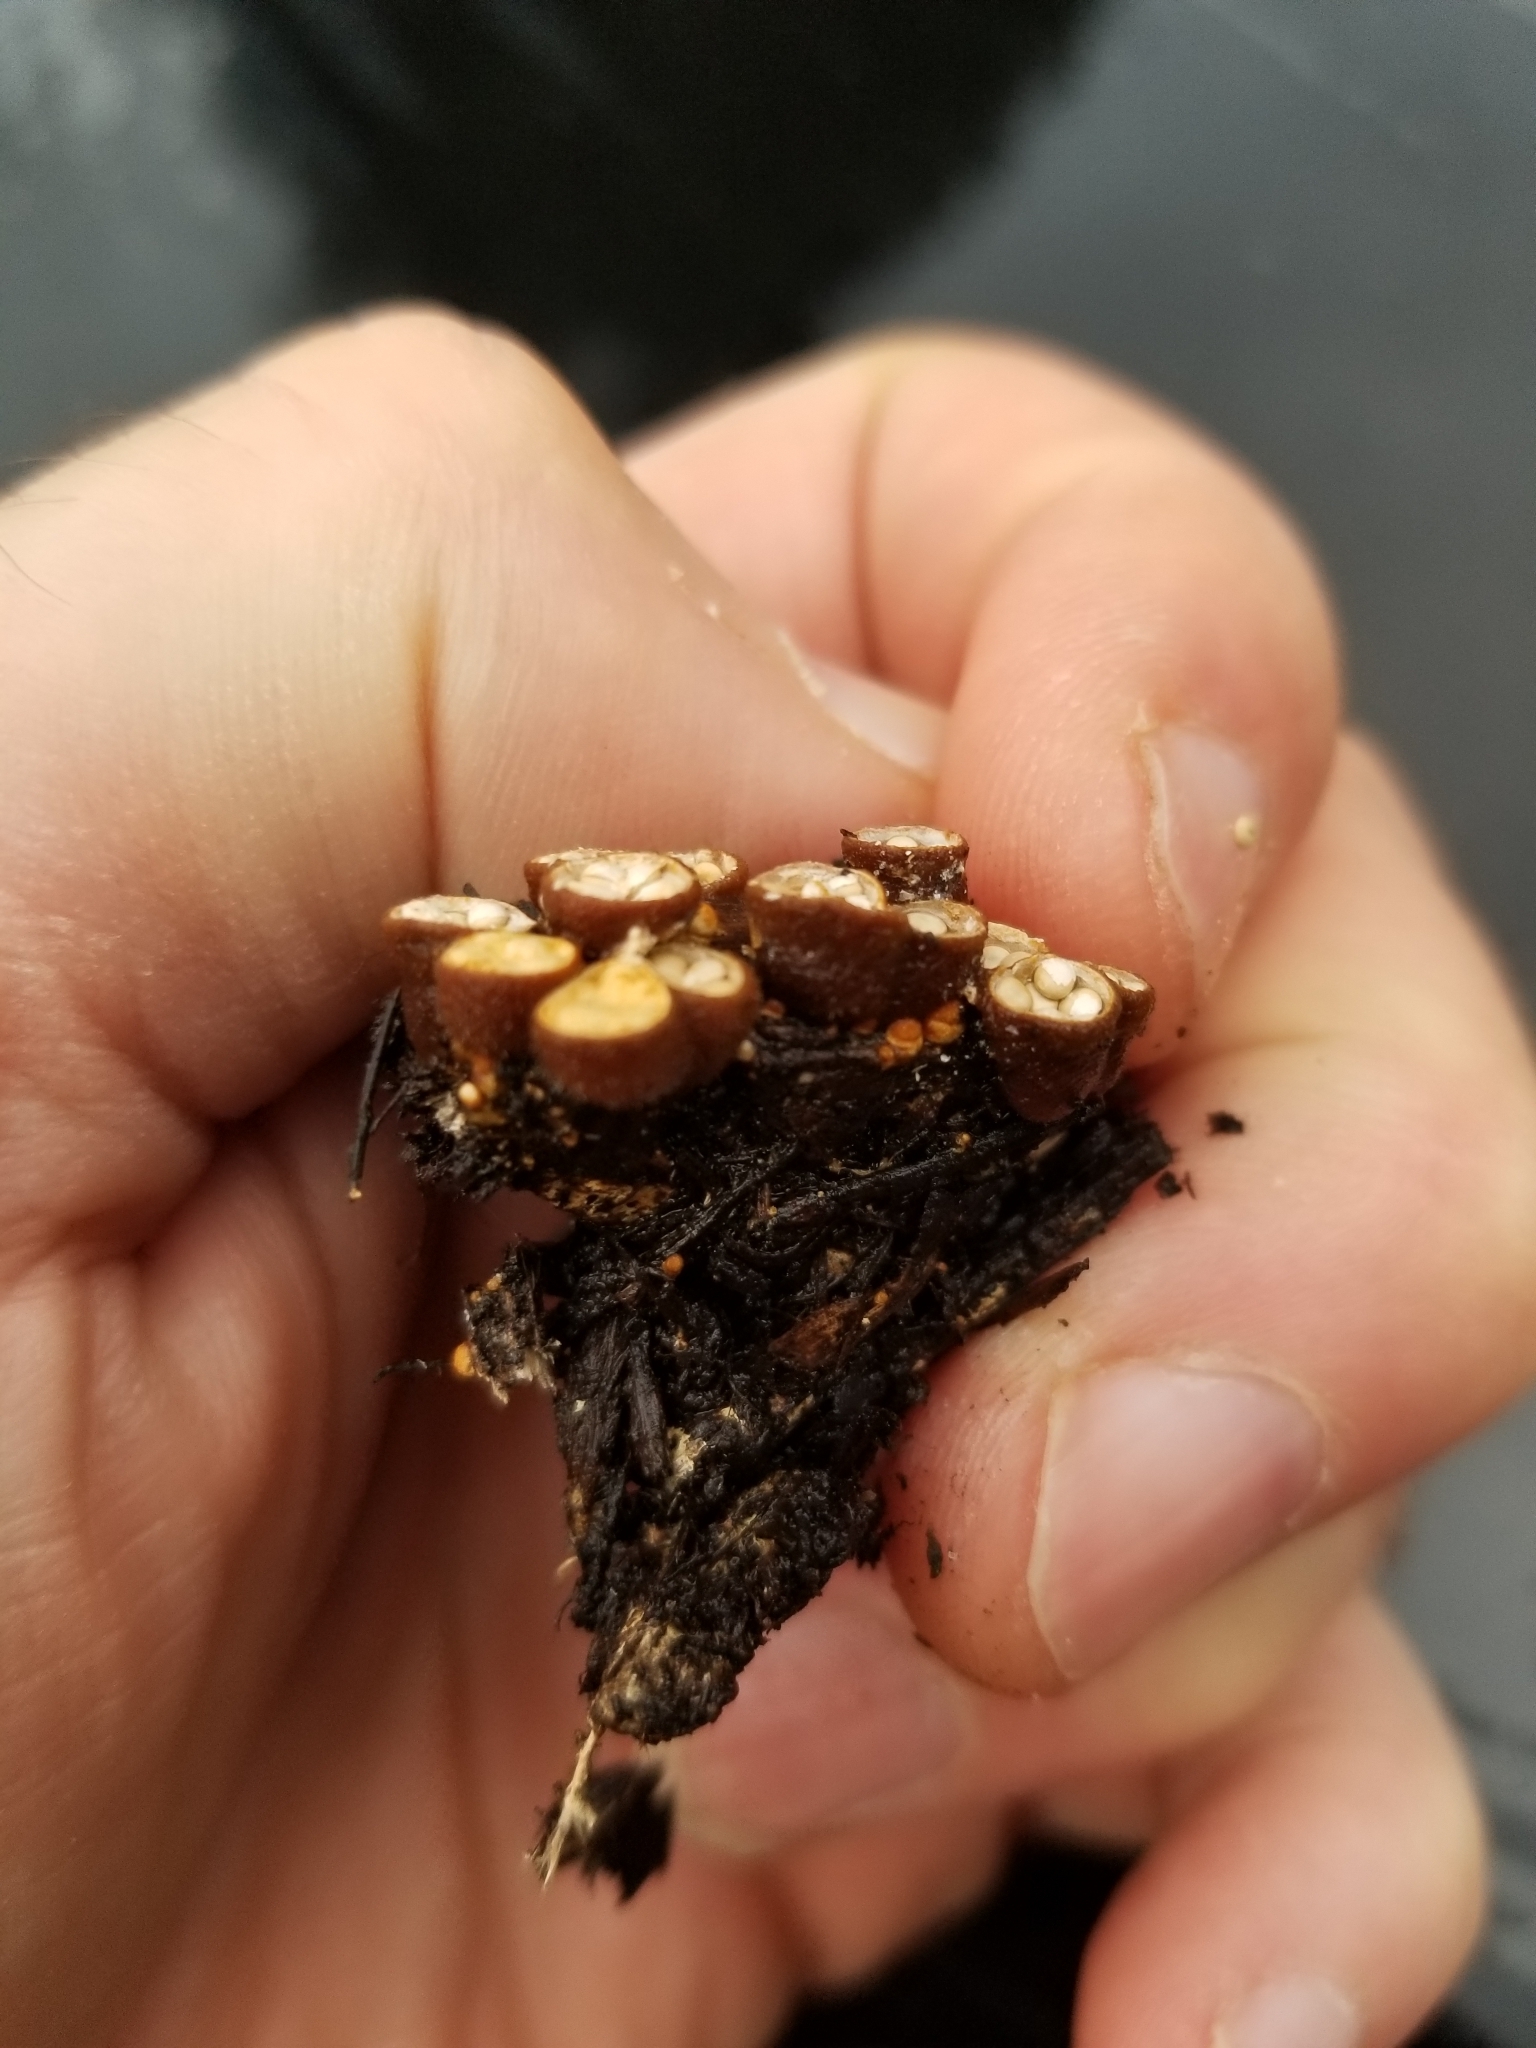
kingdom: Fungi
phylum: Basidiomycota
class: Agaricomycetes
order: Agaricales
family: Nidulariaceae
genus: Crucibulum
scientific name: Crucibulum laeve
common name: Common bird's nest
